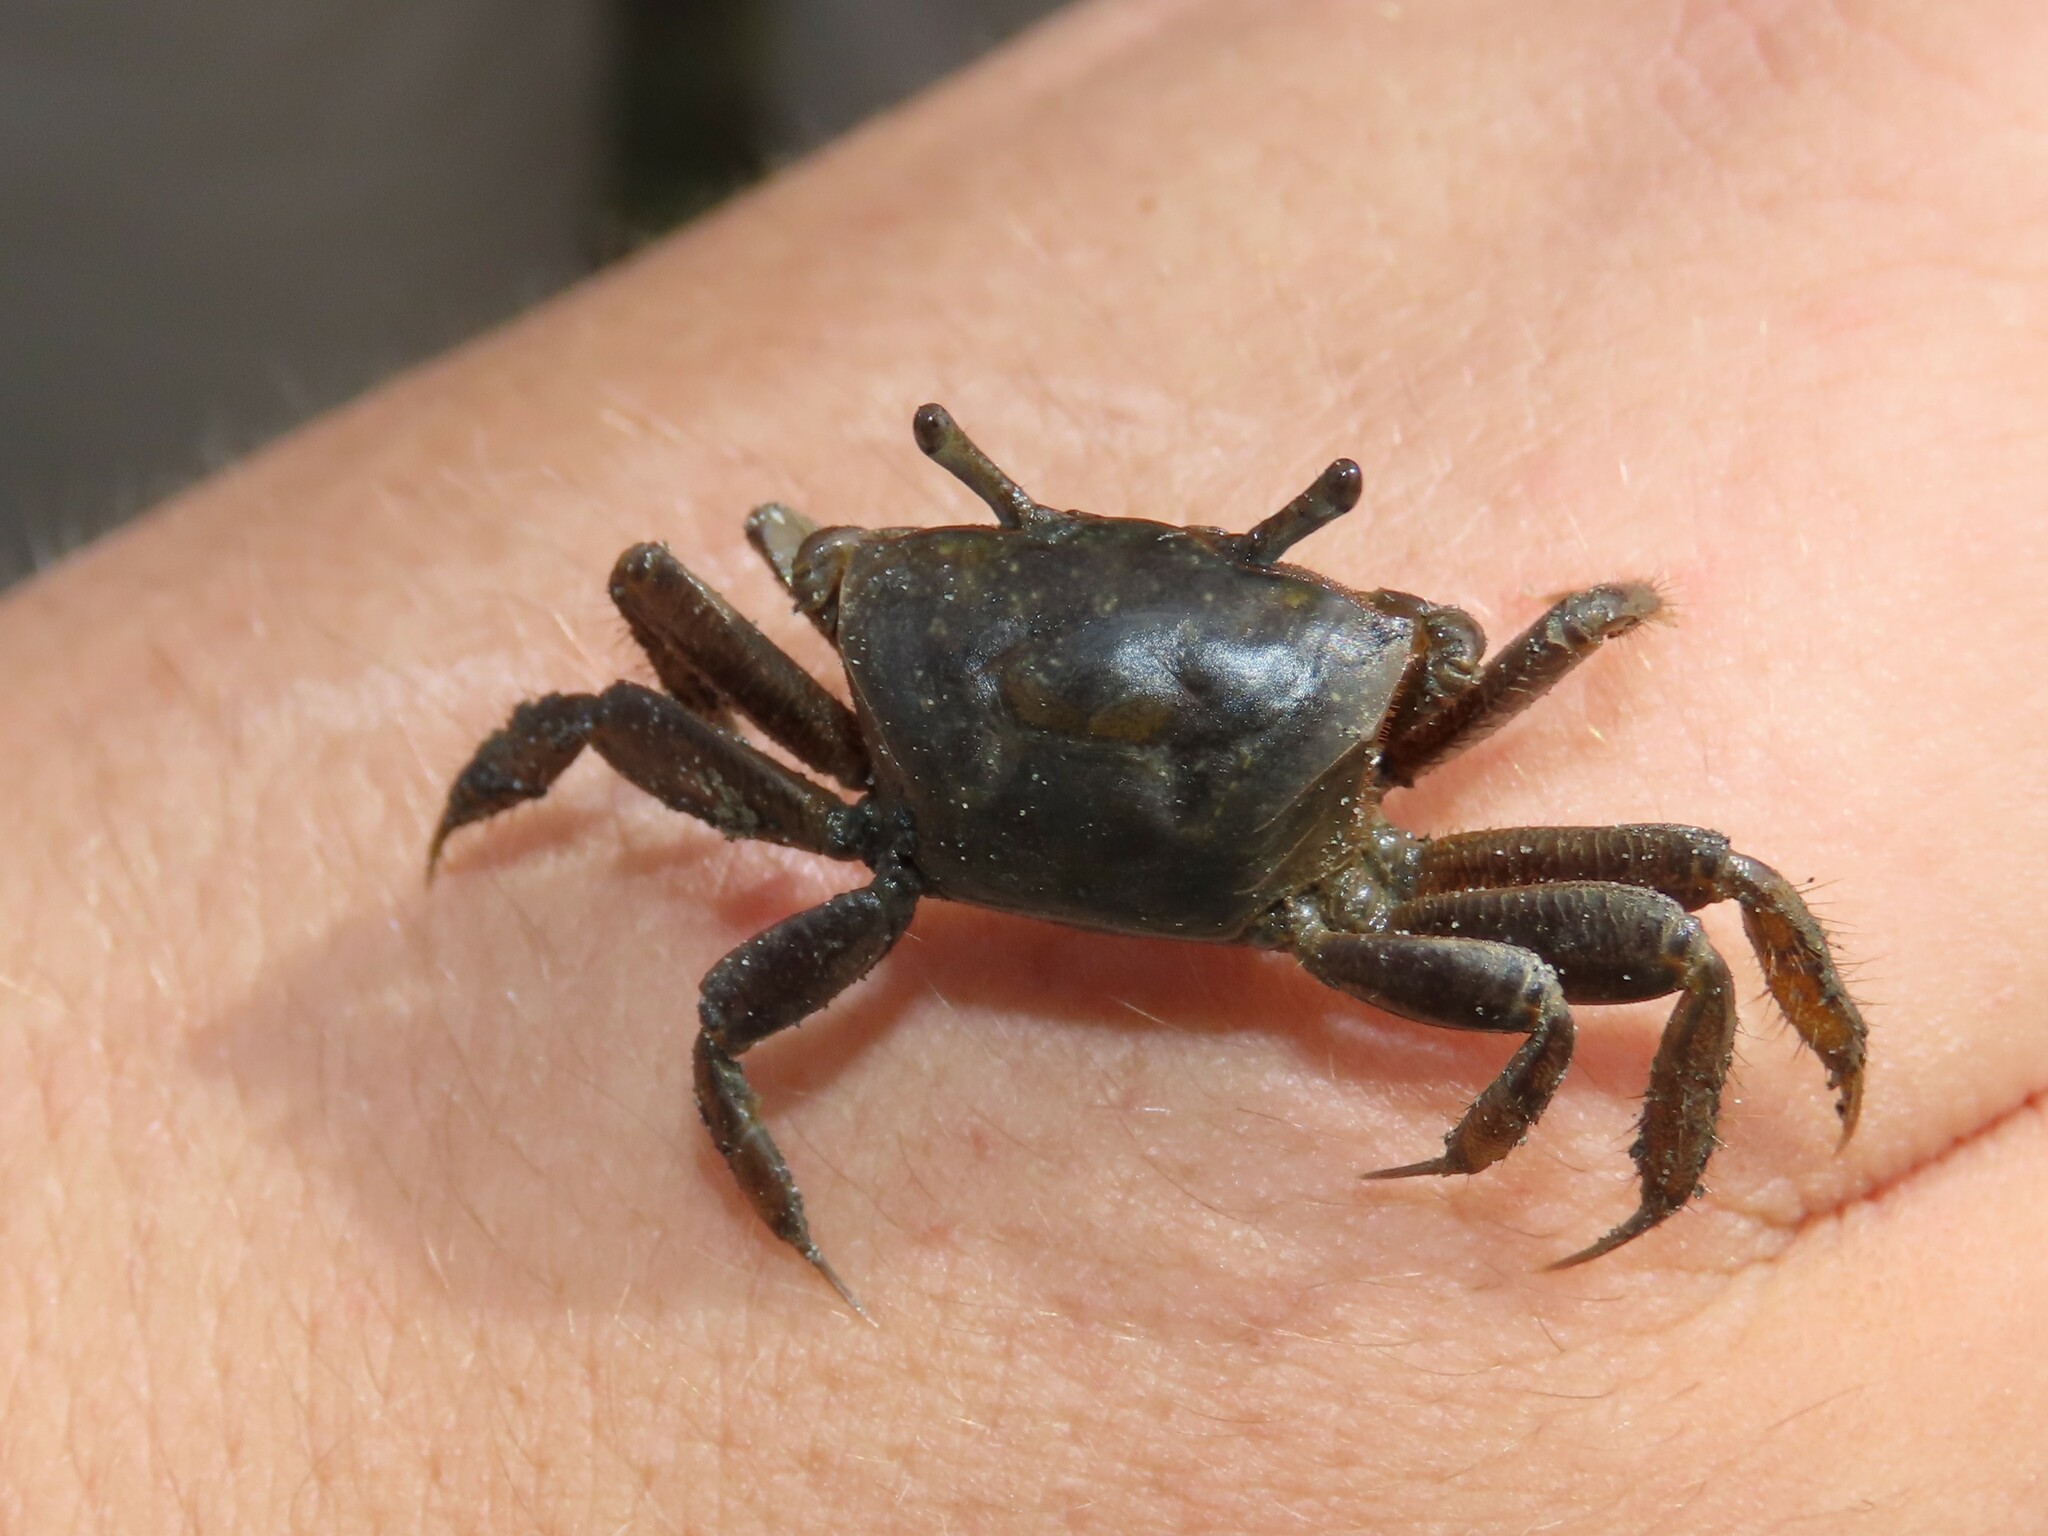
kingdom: Animalia
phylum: Arthropoda
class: Malacostraca
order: Decapoda
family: Ocypodidae
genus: Minuca
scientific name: Minuca pugnax
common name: Mud fiddler crab
